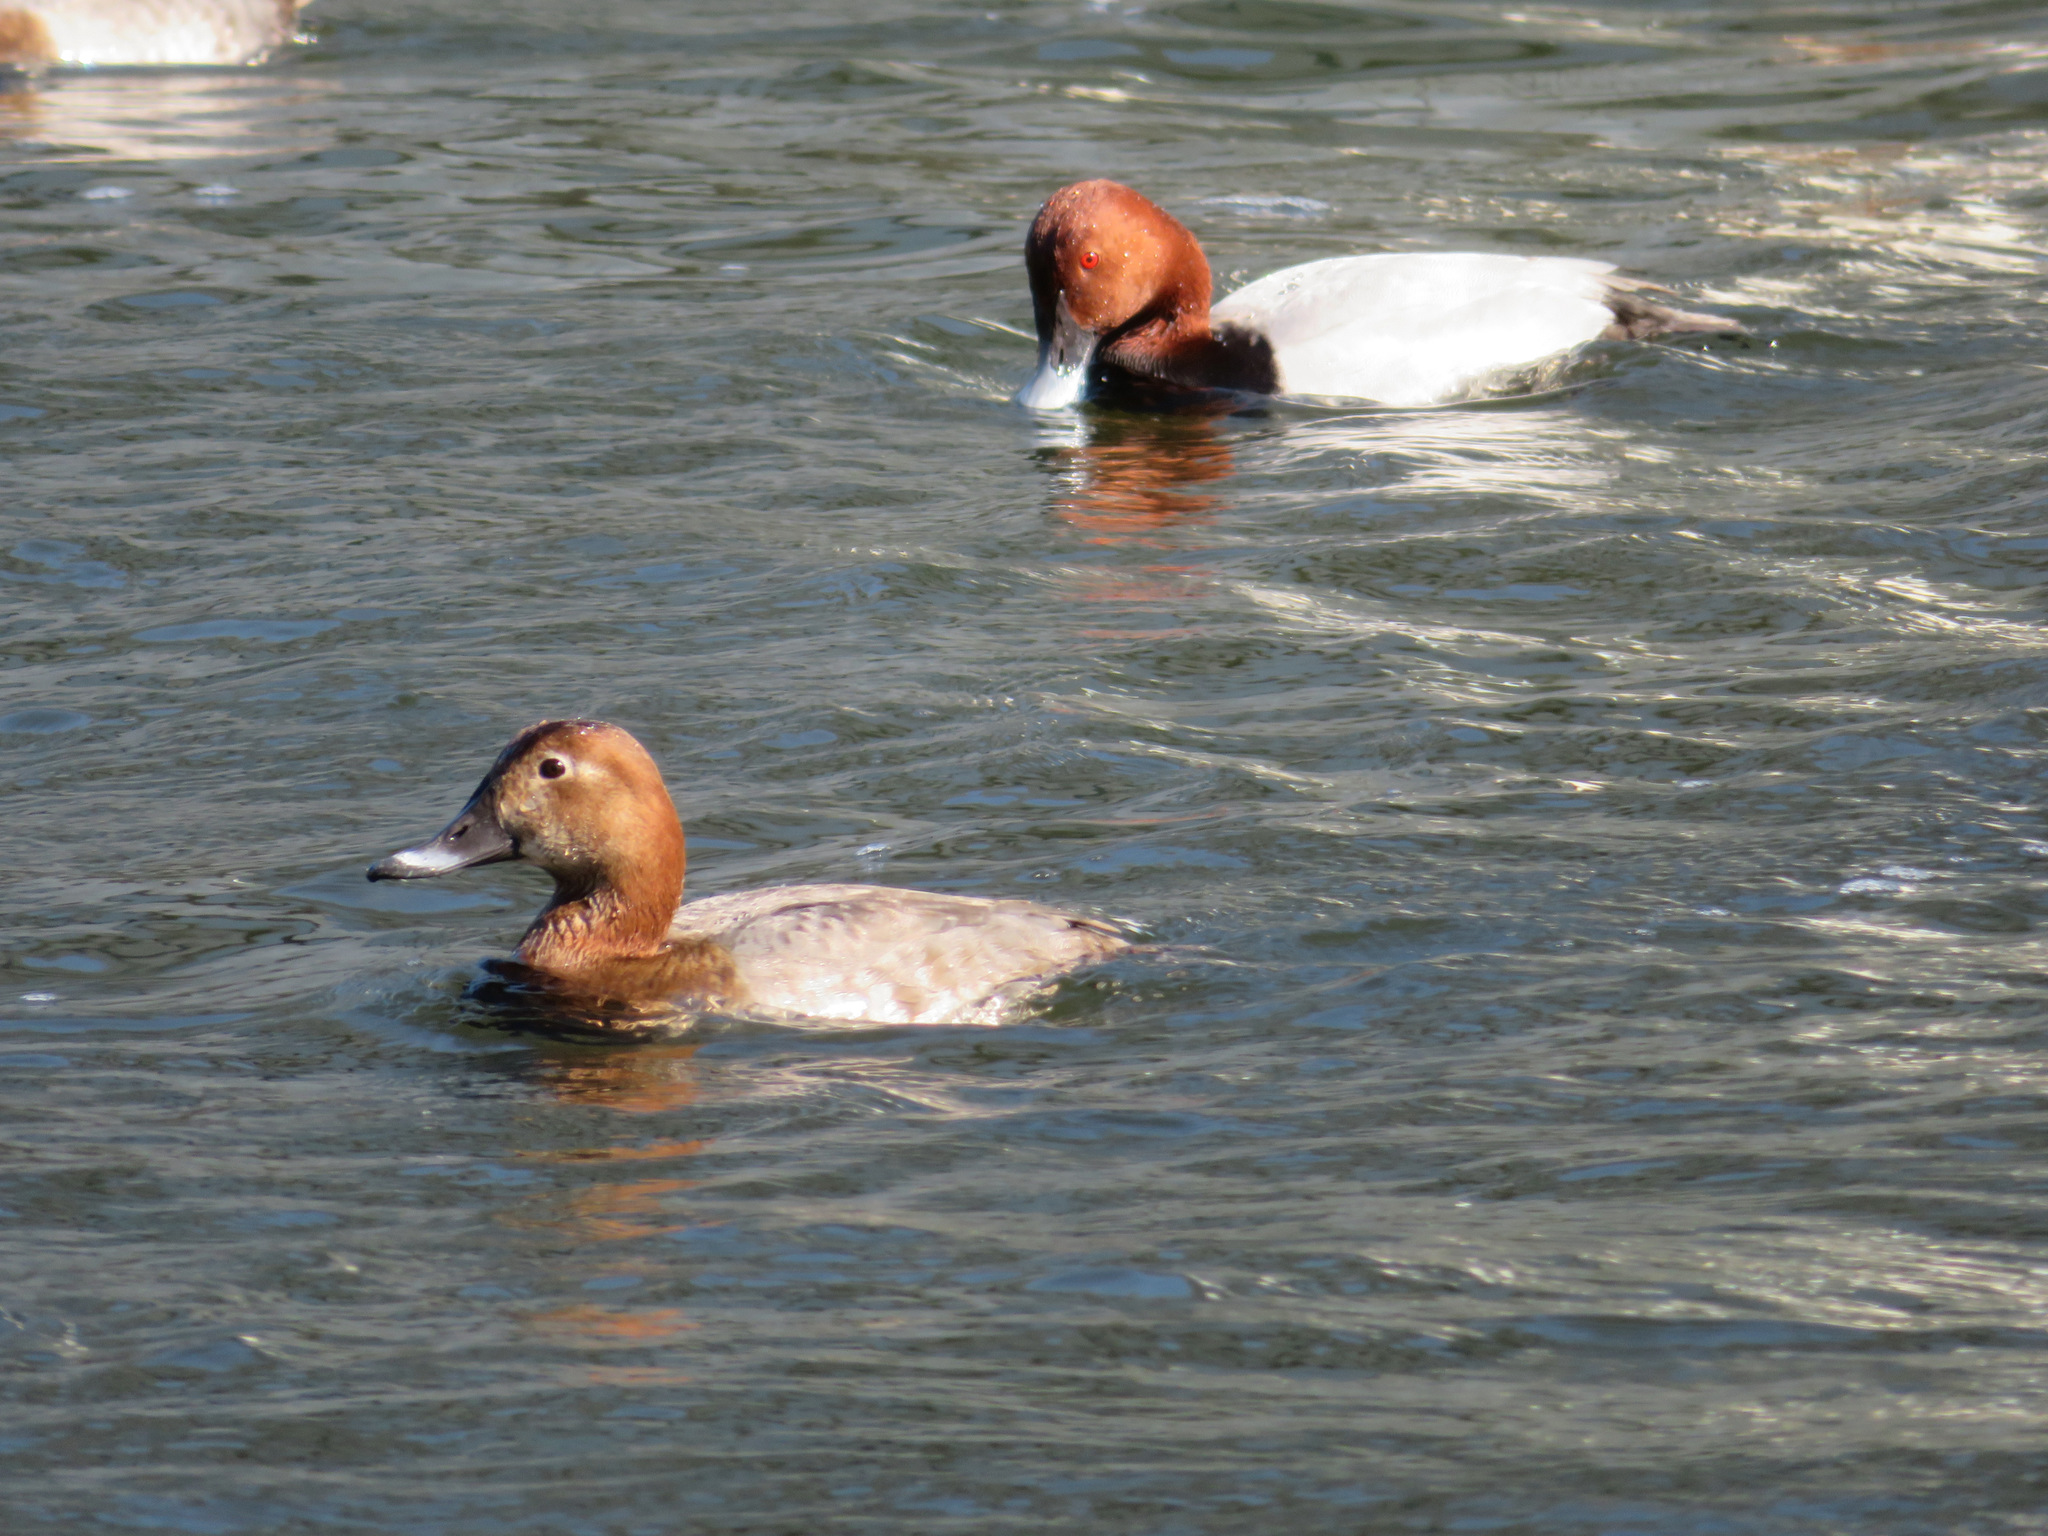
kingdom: Animalia
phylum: Chordata
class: Aves
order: Anseriformes
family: Anatidae
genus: Aythya
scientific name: Aythya ferina
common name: Common pochard
